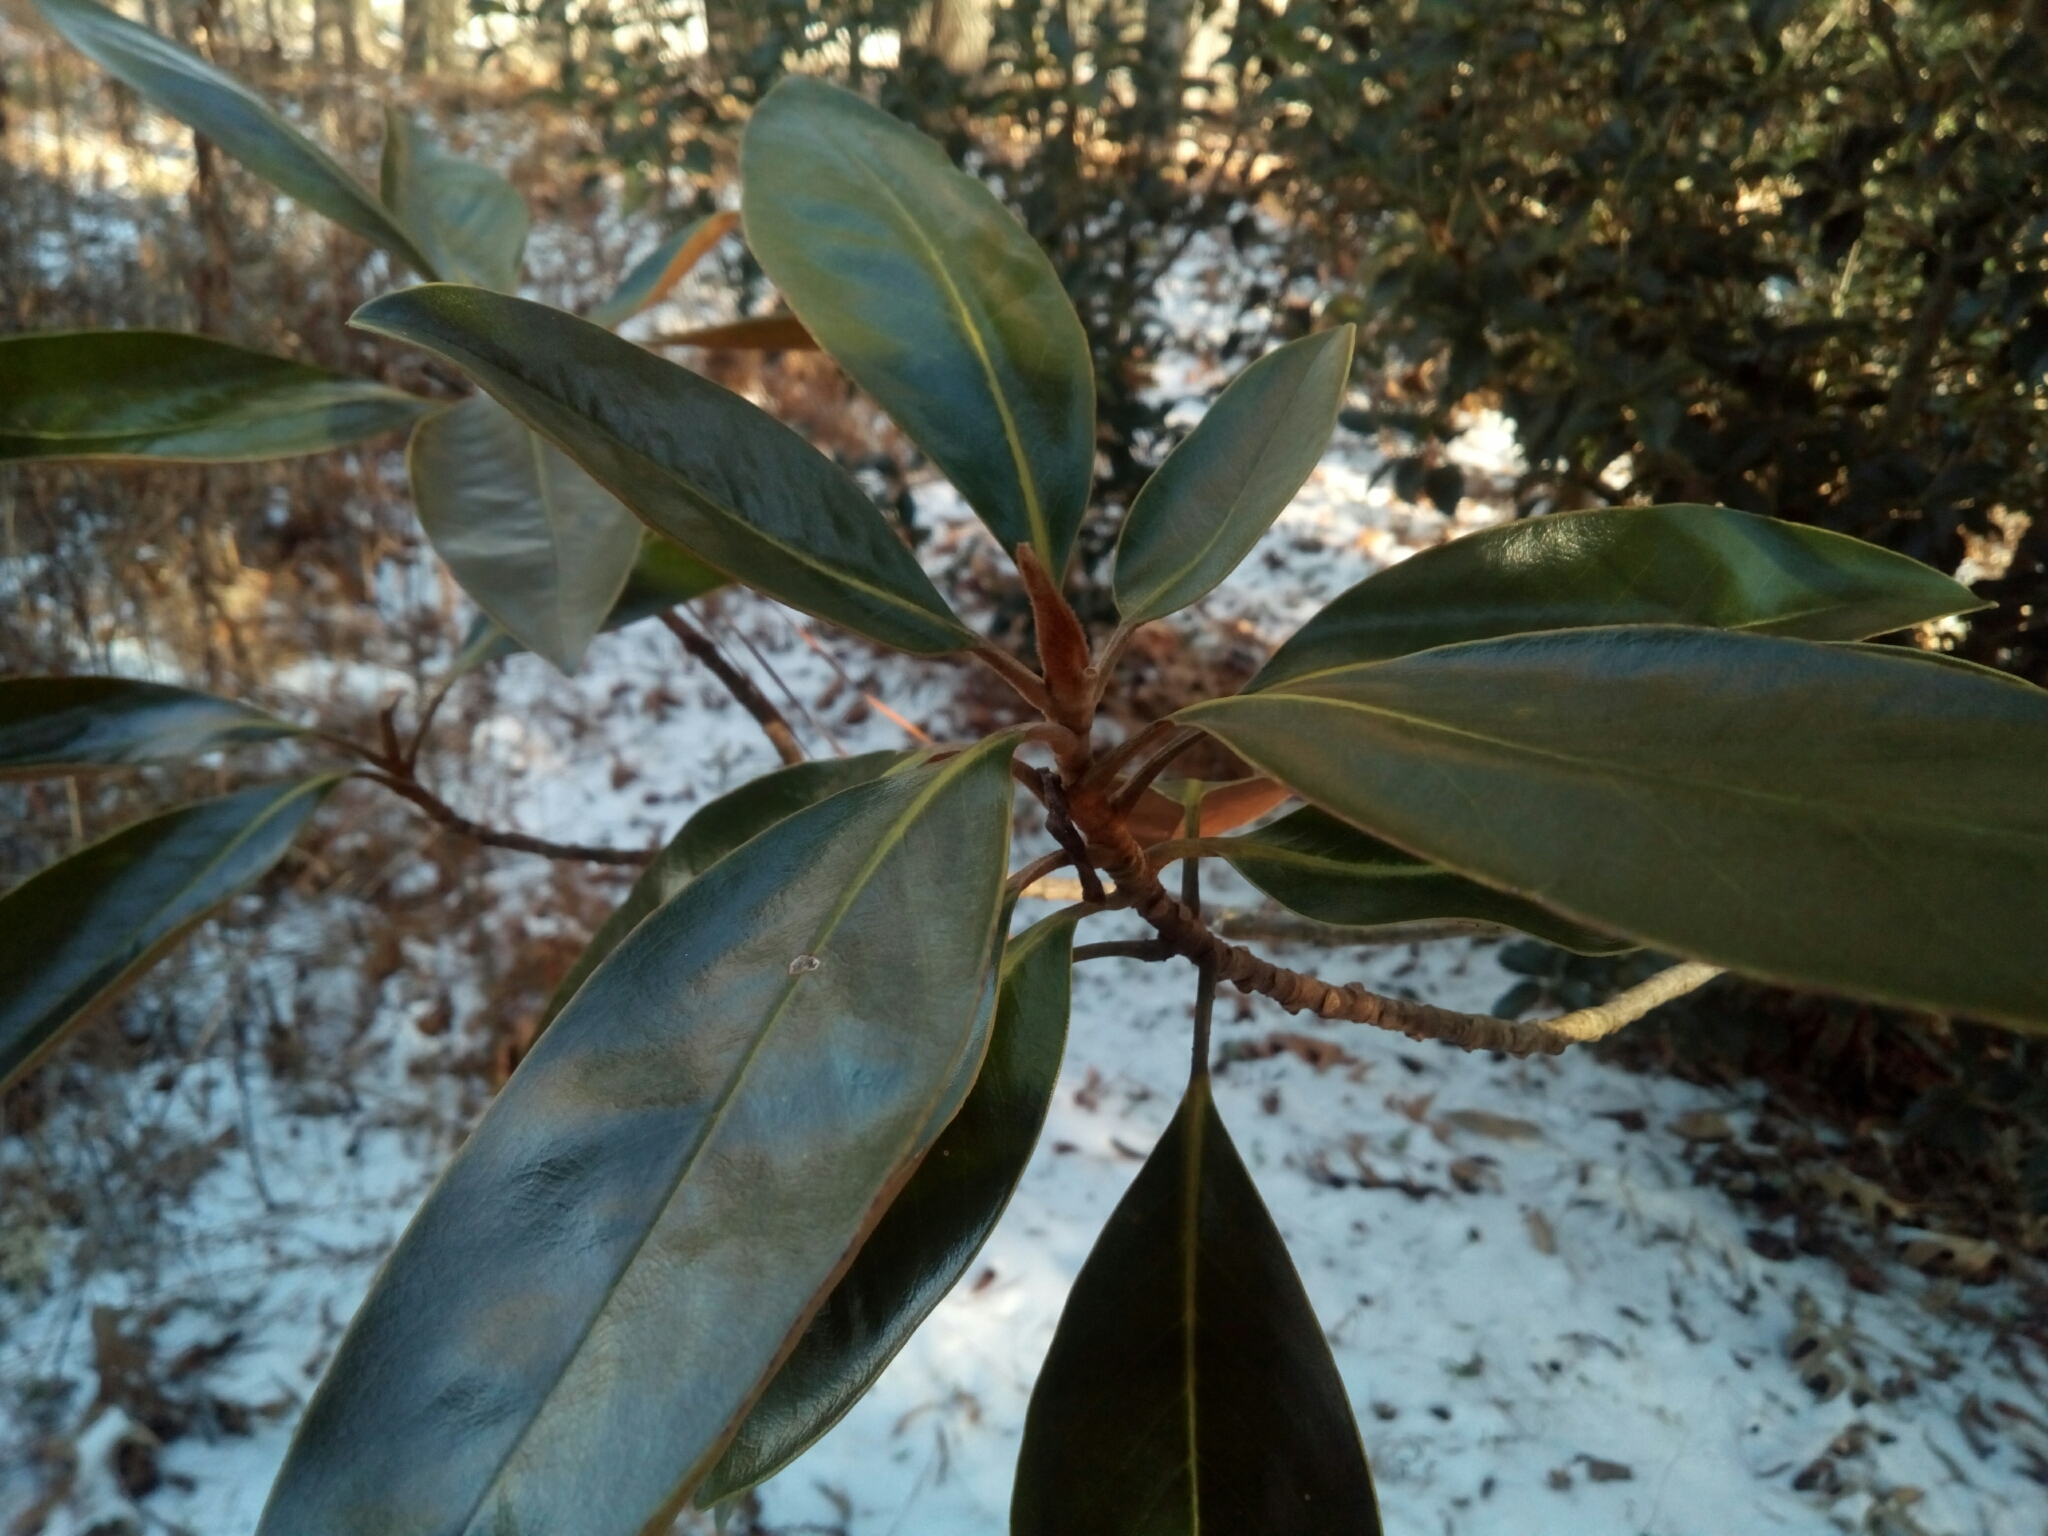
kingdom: Plantae
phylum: Tracheophyta
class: Magnoliopsida
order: Magnoliales
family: Magnoliaceae
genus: Magnolia
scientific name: Magnolia grandiflora
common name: Southern magnolia
